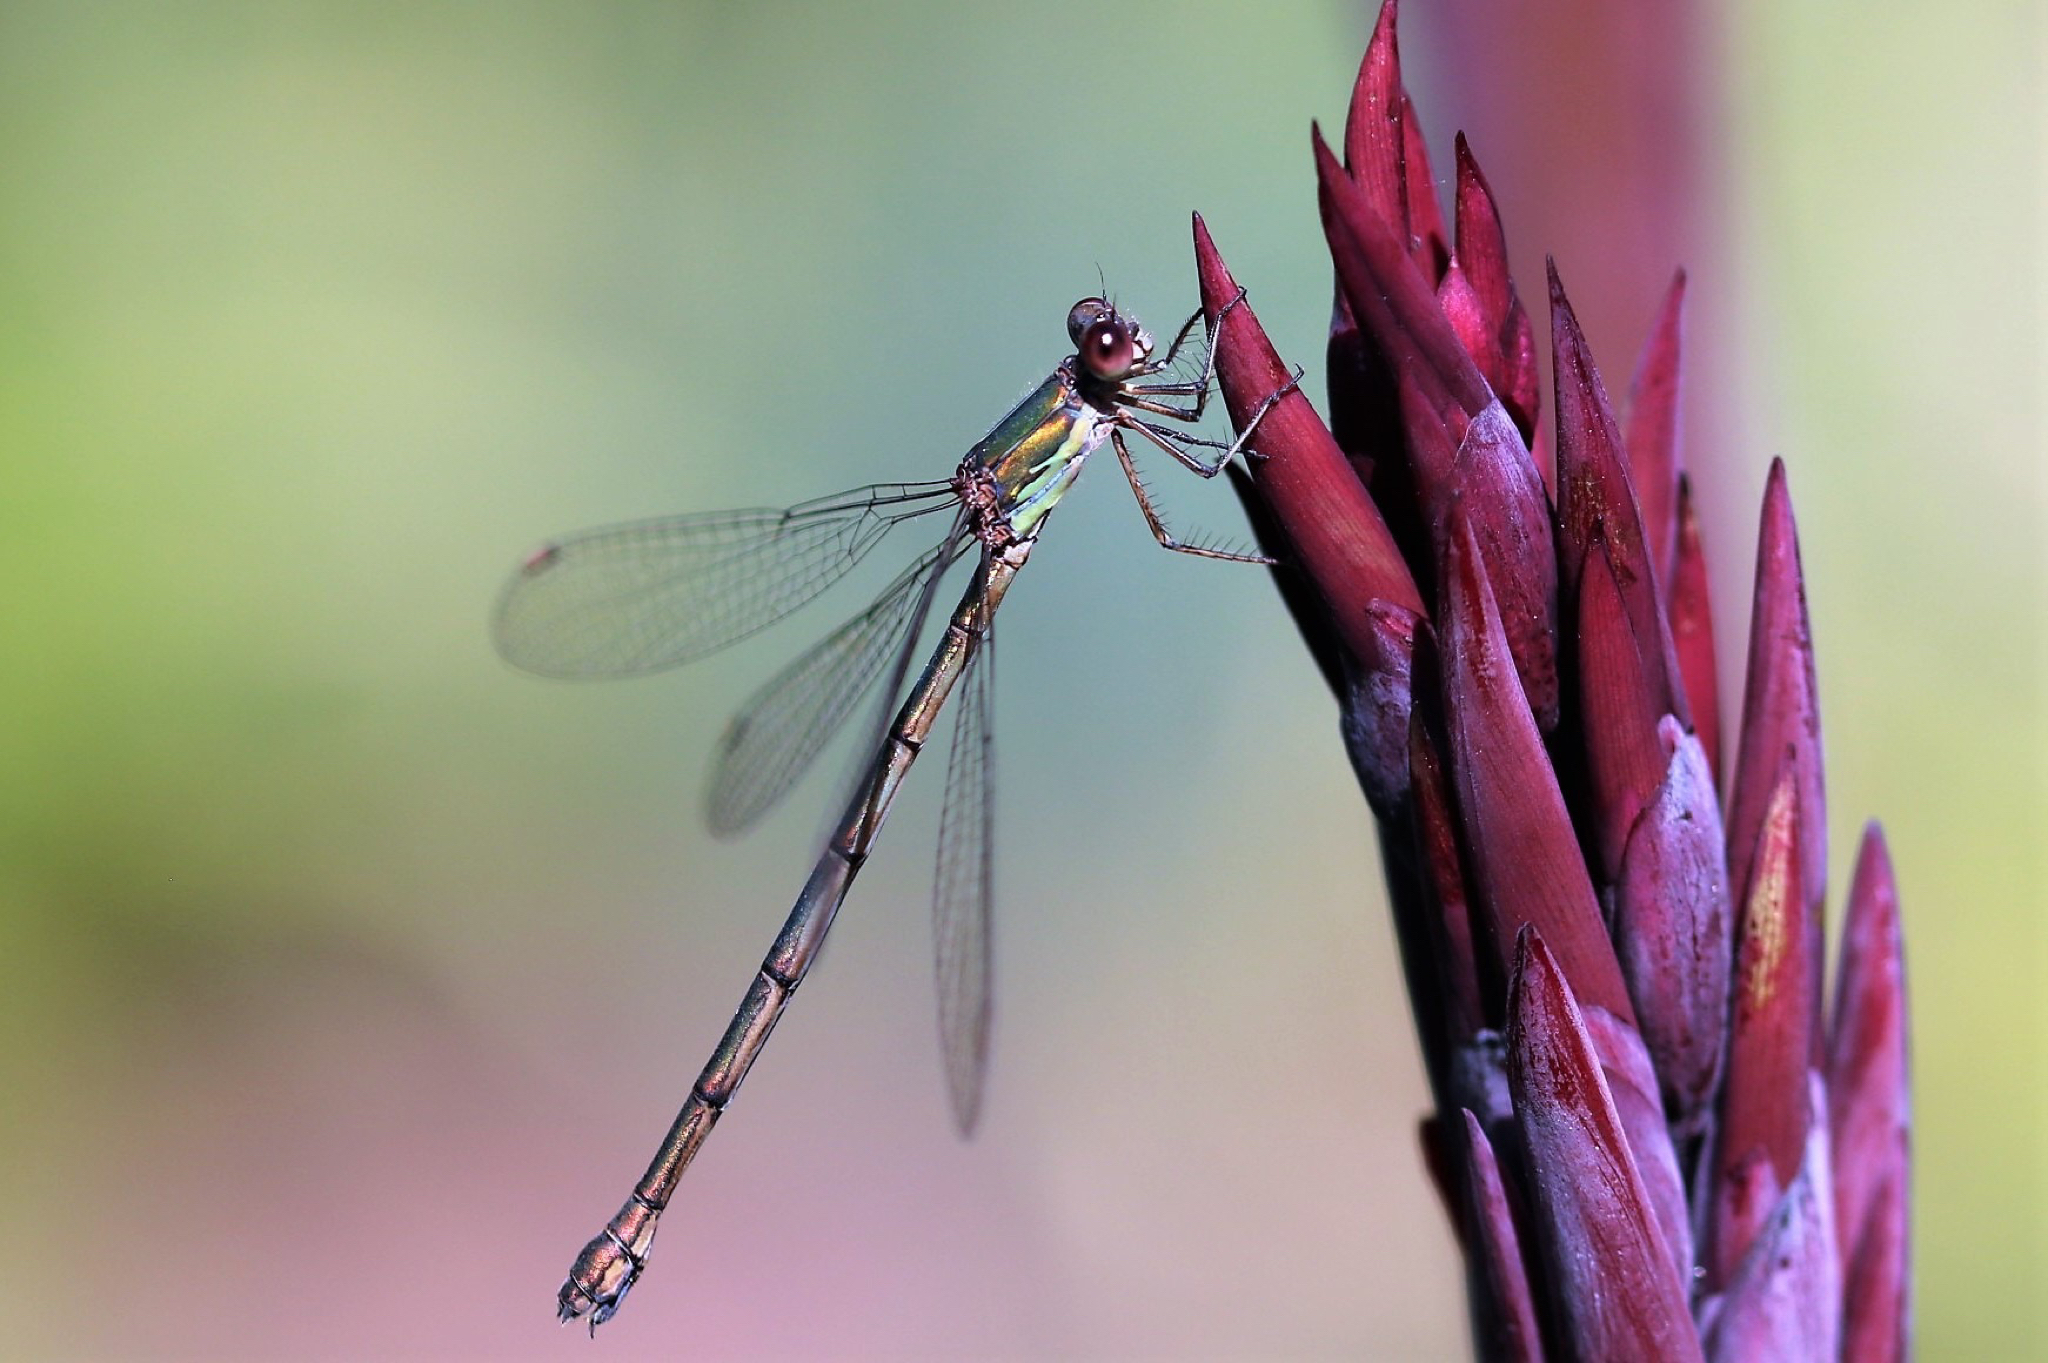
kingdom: Animalia
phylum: Arthropoda
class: Insecta
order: Odonata
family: Lestidae
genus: Chalcolestes
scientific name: Chalcolestes viridis
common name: Green emerald damselfly
